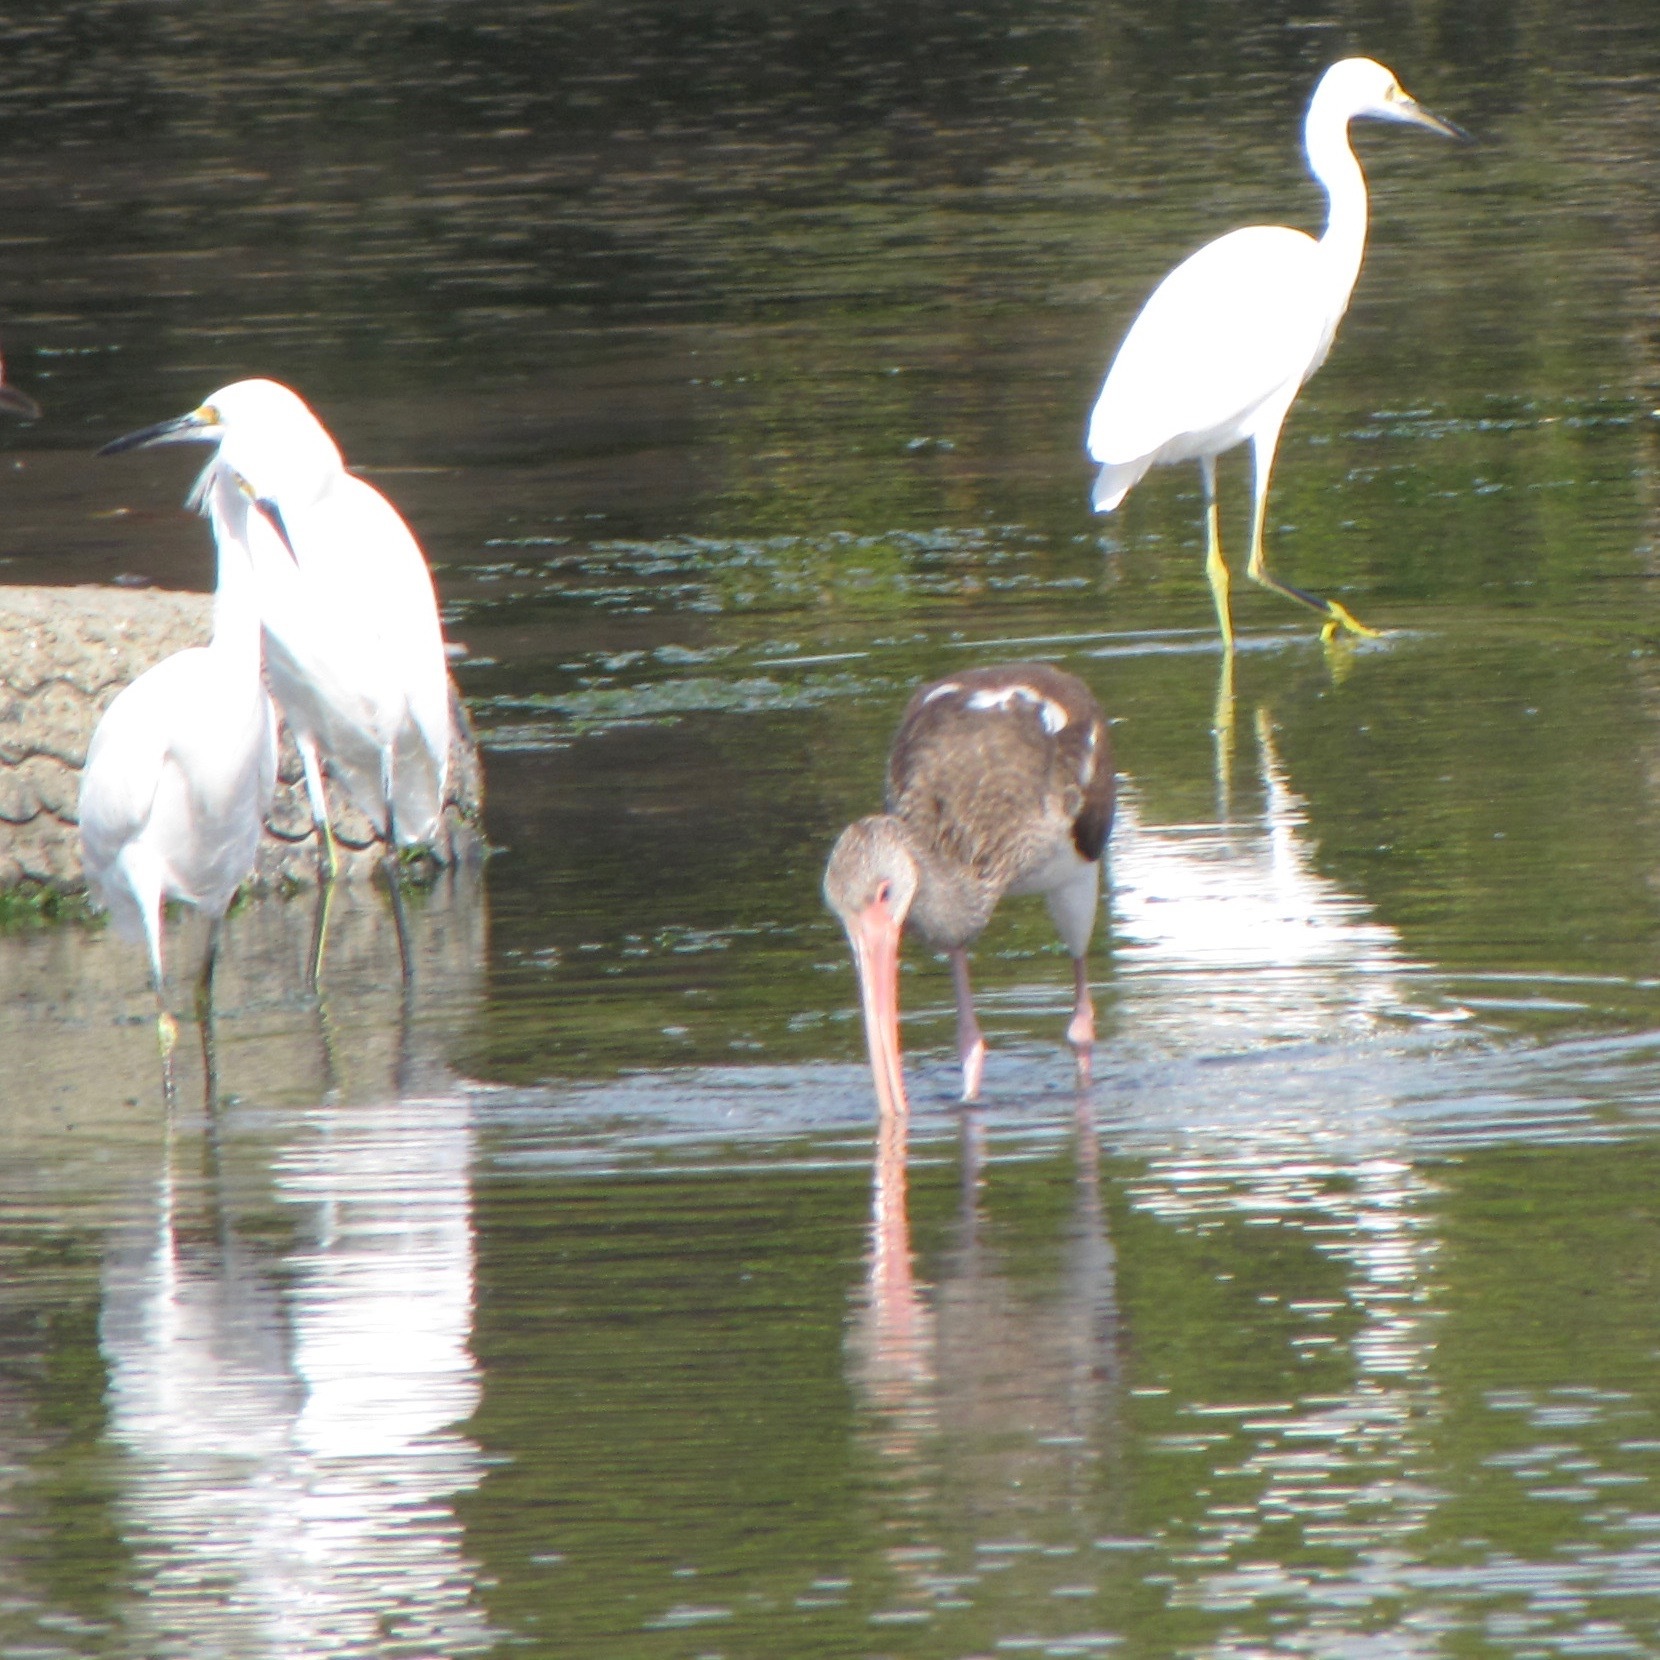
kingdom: Animalia
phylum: Chordata
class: Aves
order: Pelecaniformes
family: Threskiornithidae
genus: Eudocimus
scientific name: Eudocimus albus
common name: White ibis
